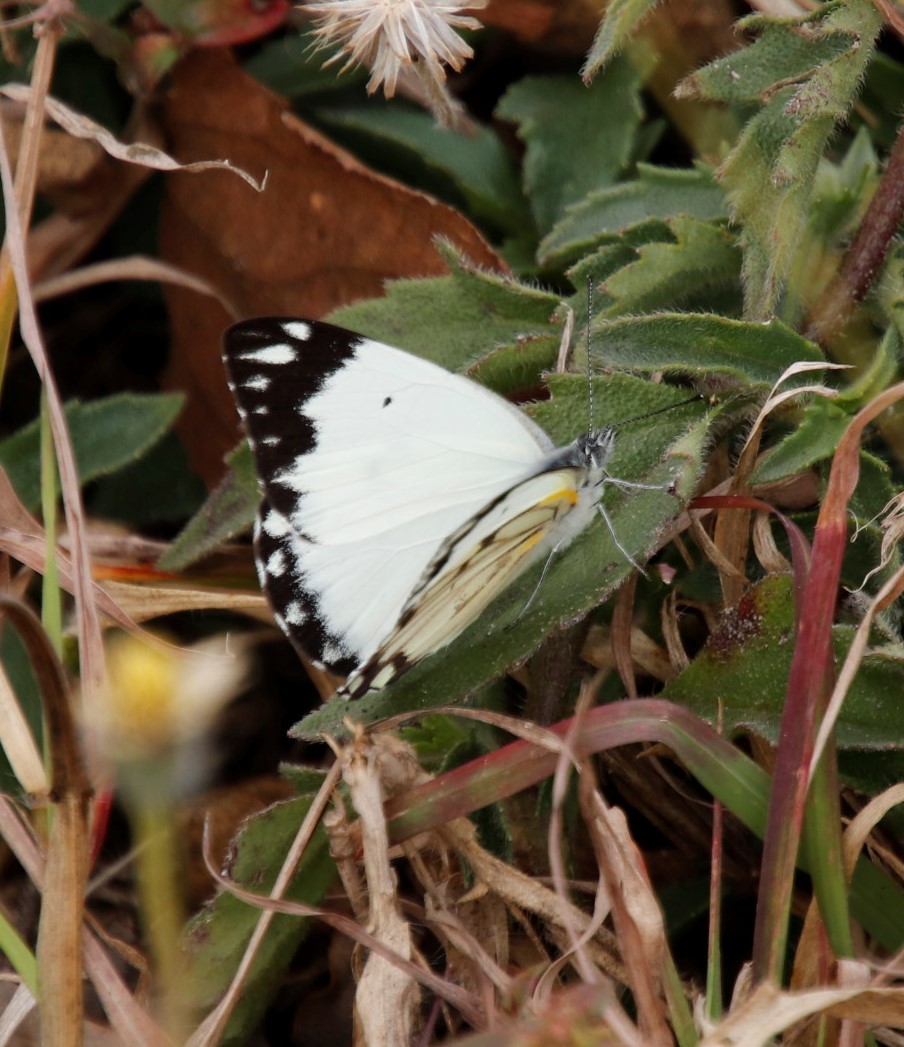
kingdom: Animalia
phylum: Arthropoda
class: Insecta
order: Lepidoptera
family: Pieridae
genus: Belenois
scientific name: Belenois creona
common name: African caper white
